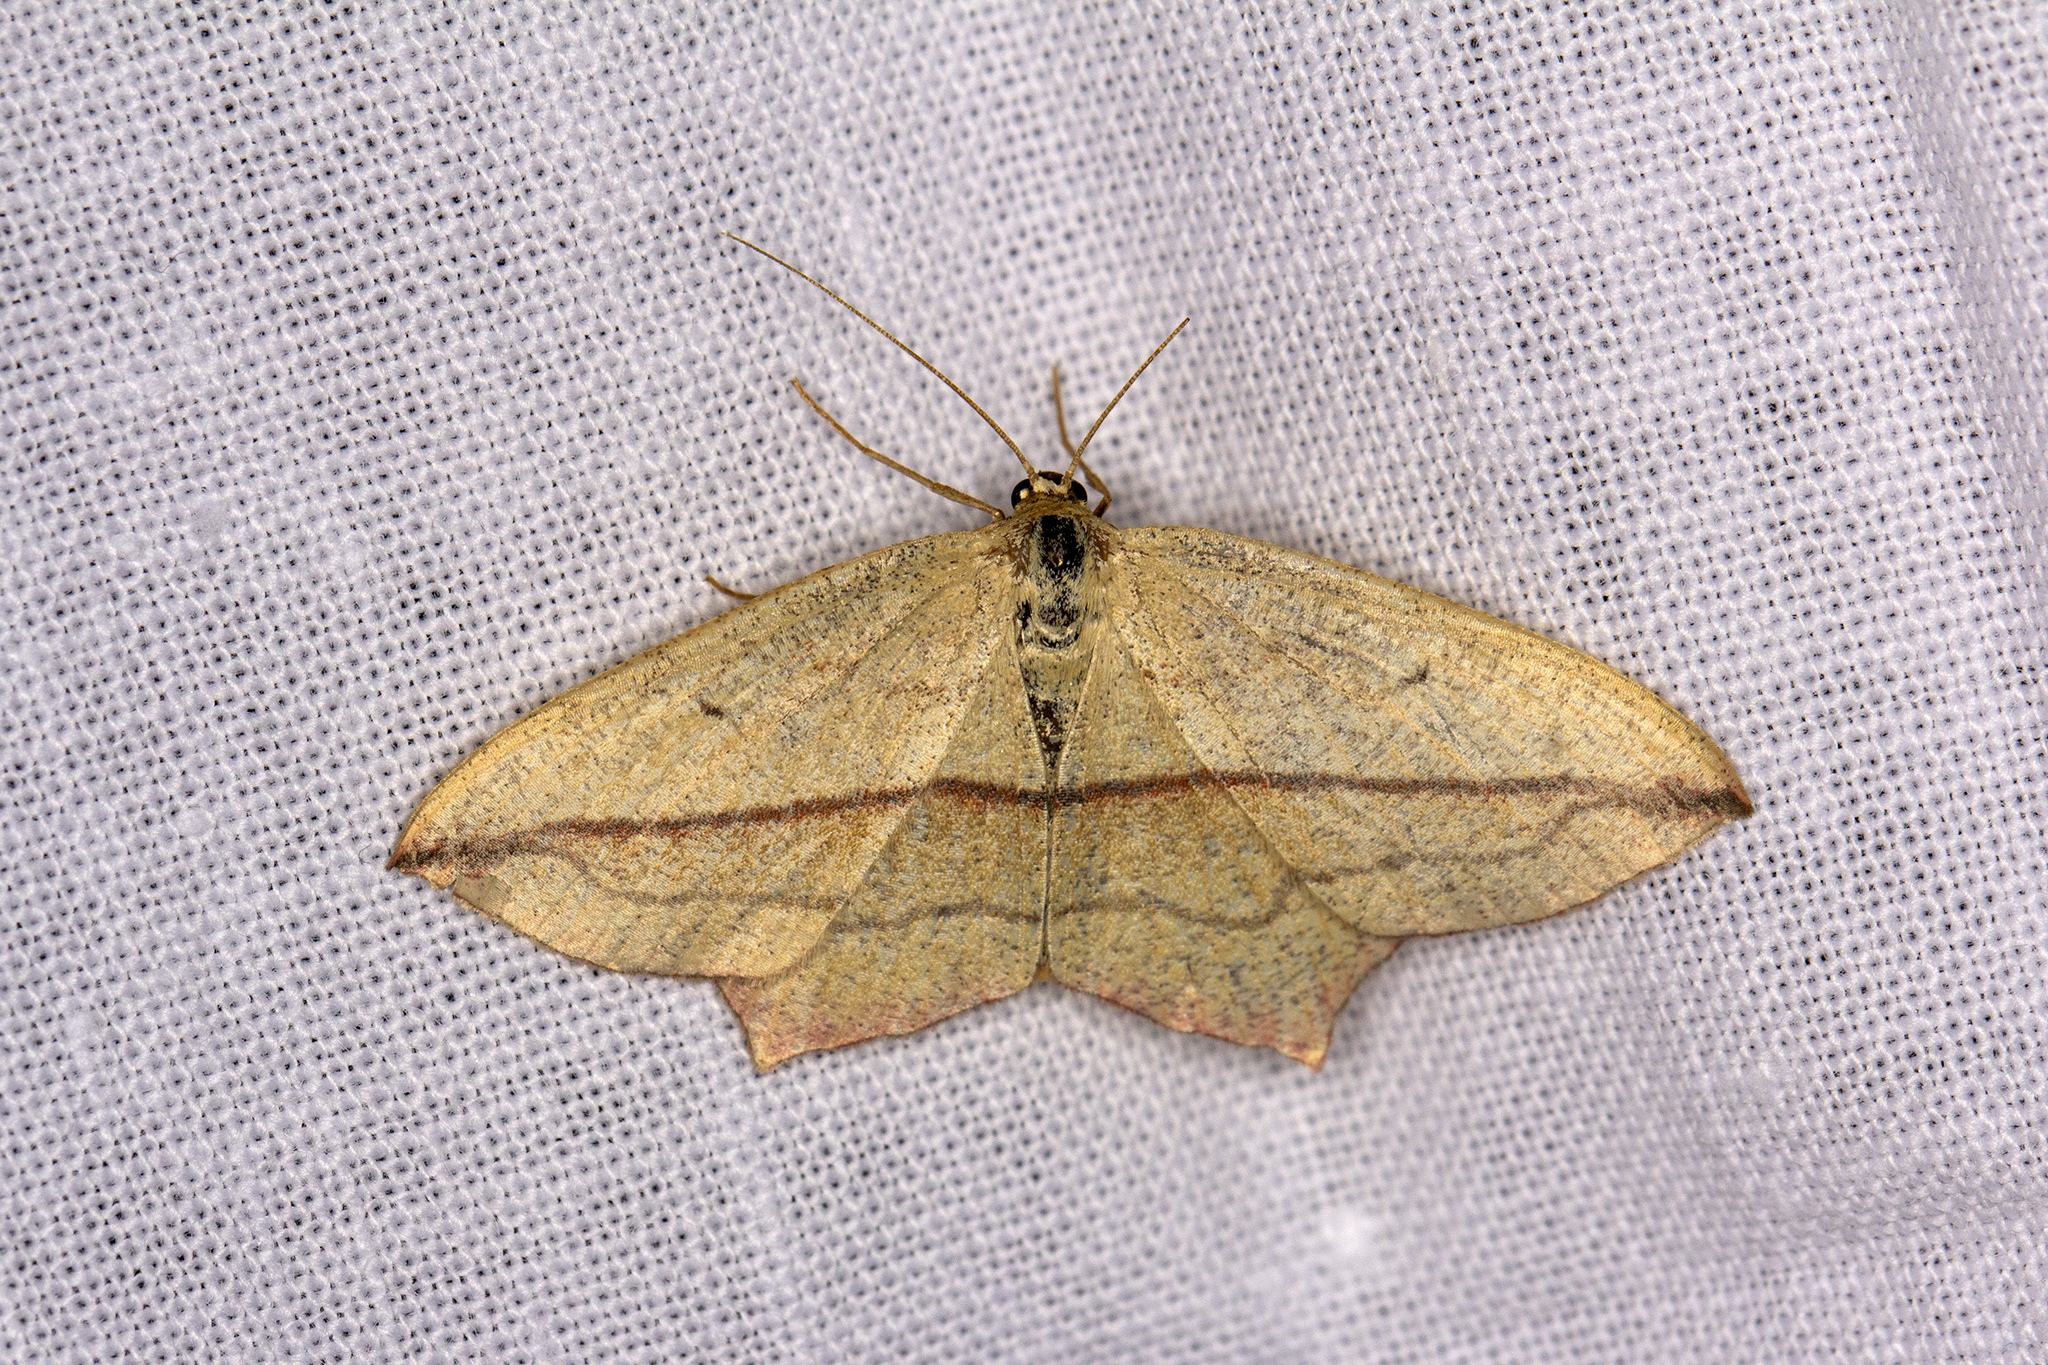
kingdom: Animalia
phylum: Arthropoda
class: Insecta
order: Lepidoptera
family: Geometridae
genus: Timandra
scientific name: Timandra comae
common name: Blood-vein
